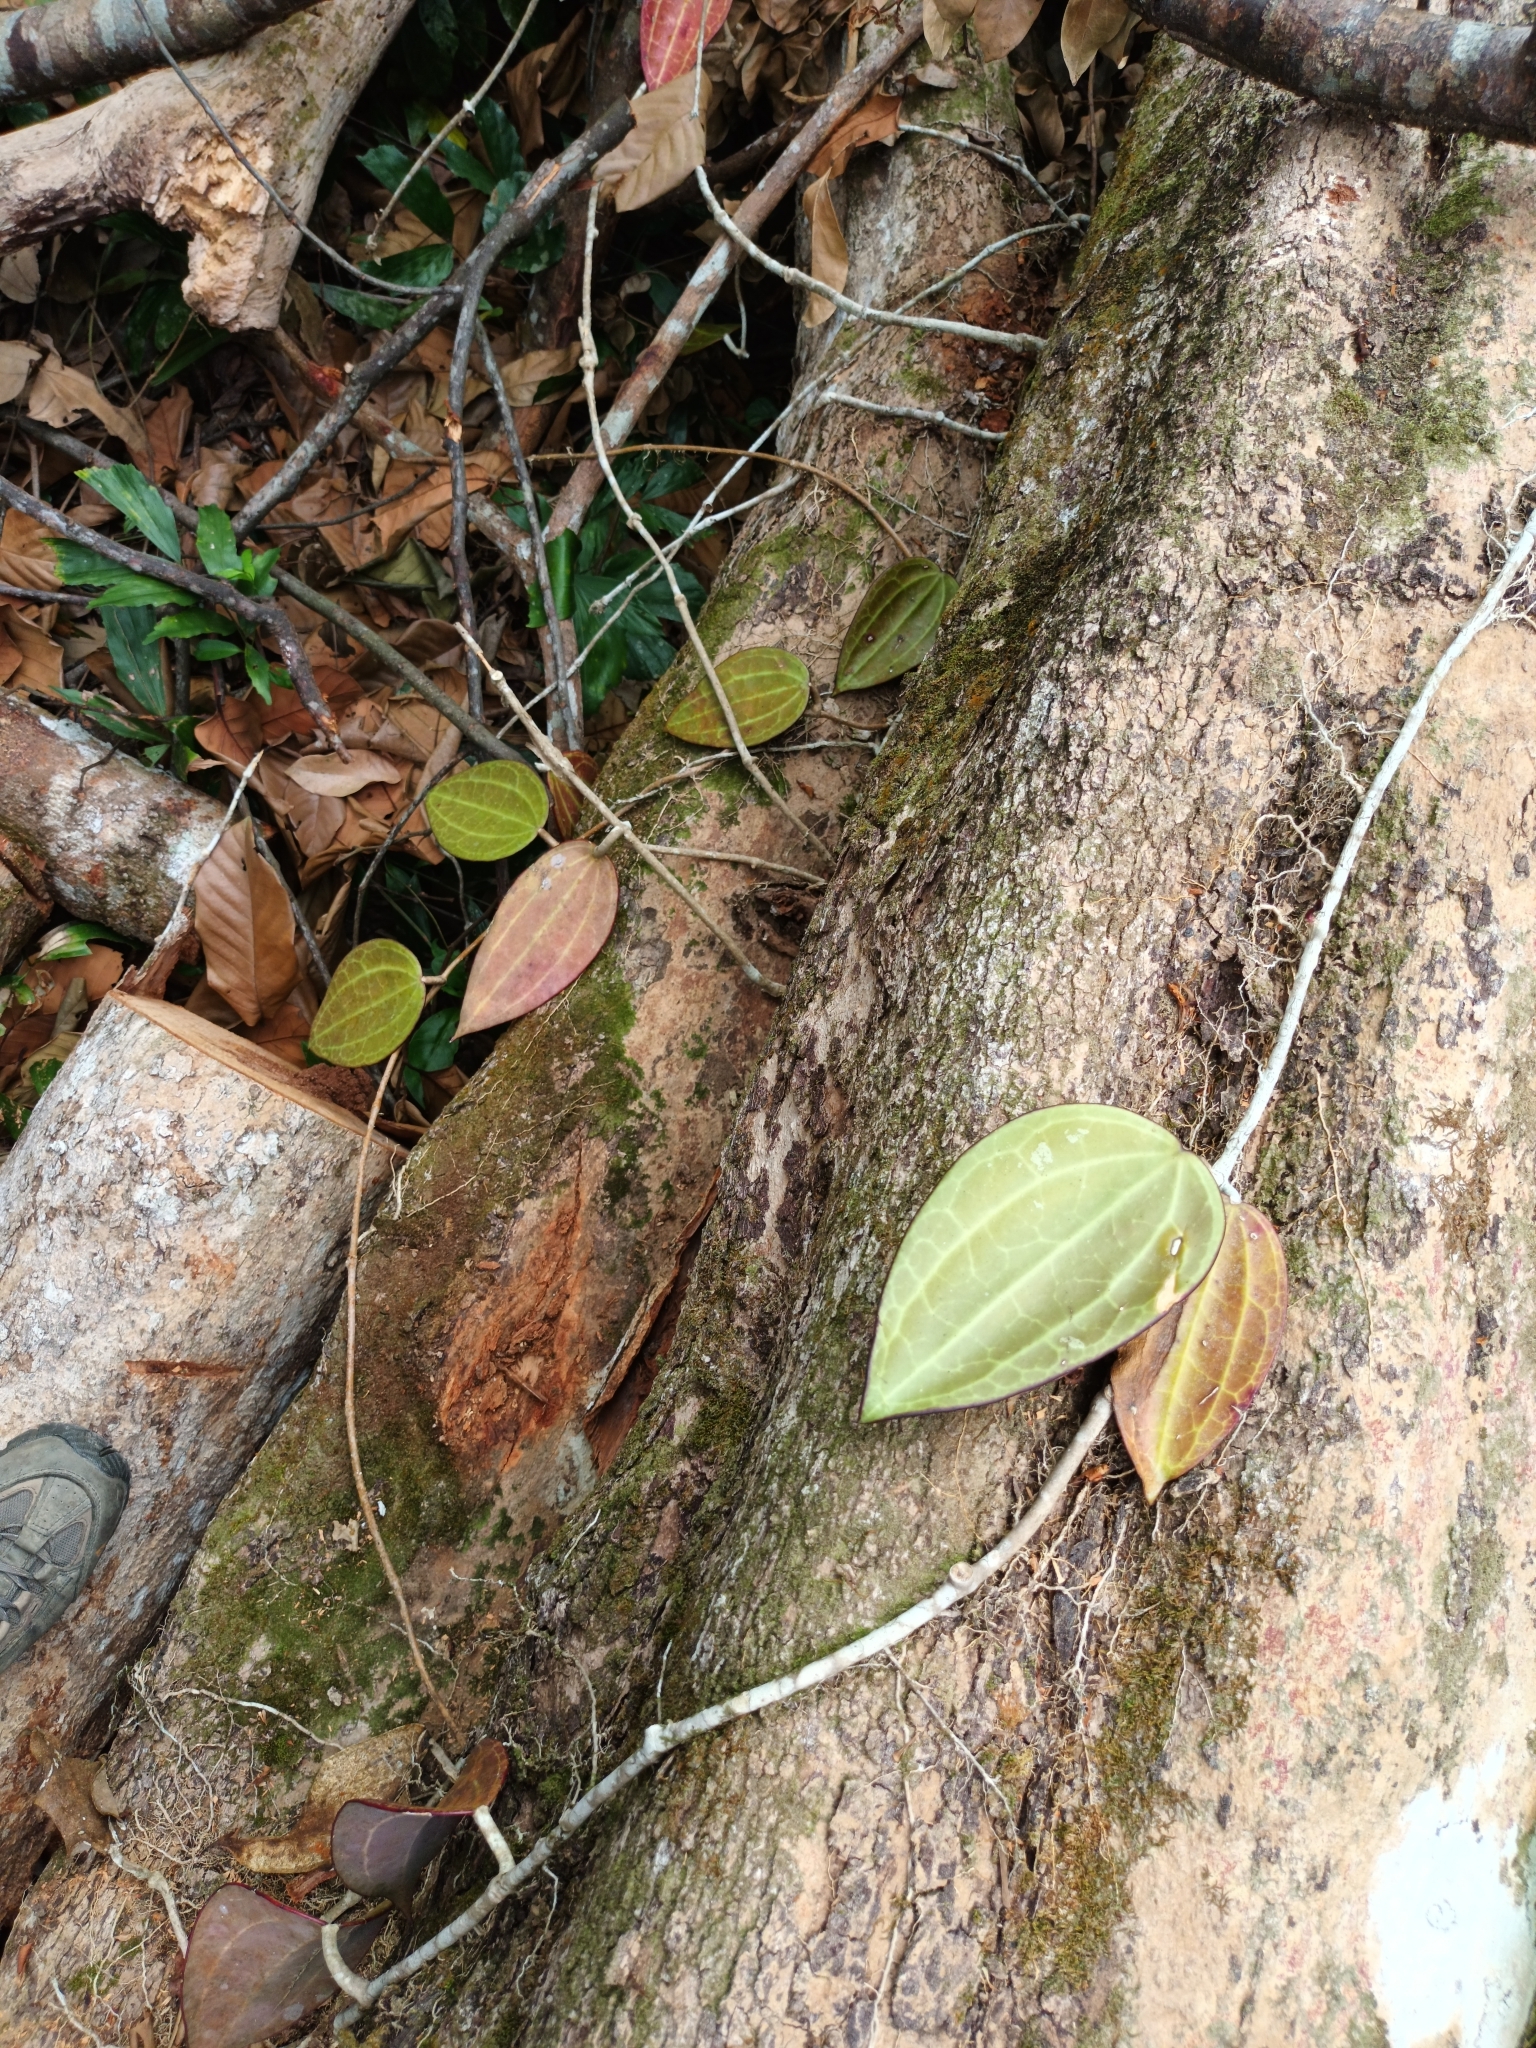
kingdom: Plantae
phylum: Tracheophyta
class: Magnoliopsida
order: Gentianales
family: Apocynaceae
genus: Hoya
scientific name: Hoya latifolia
